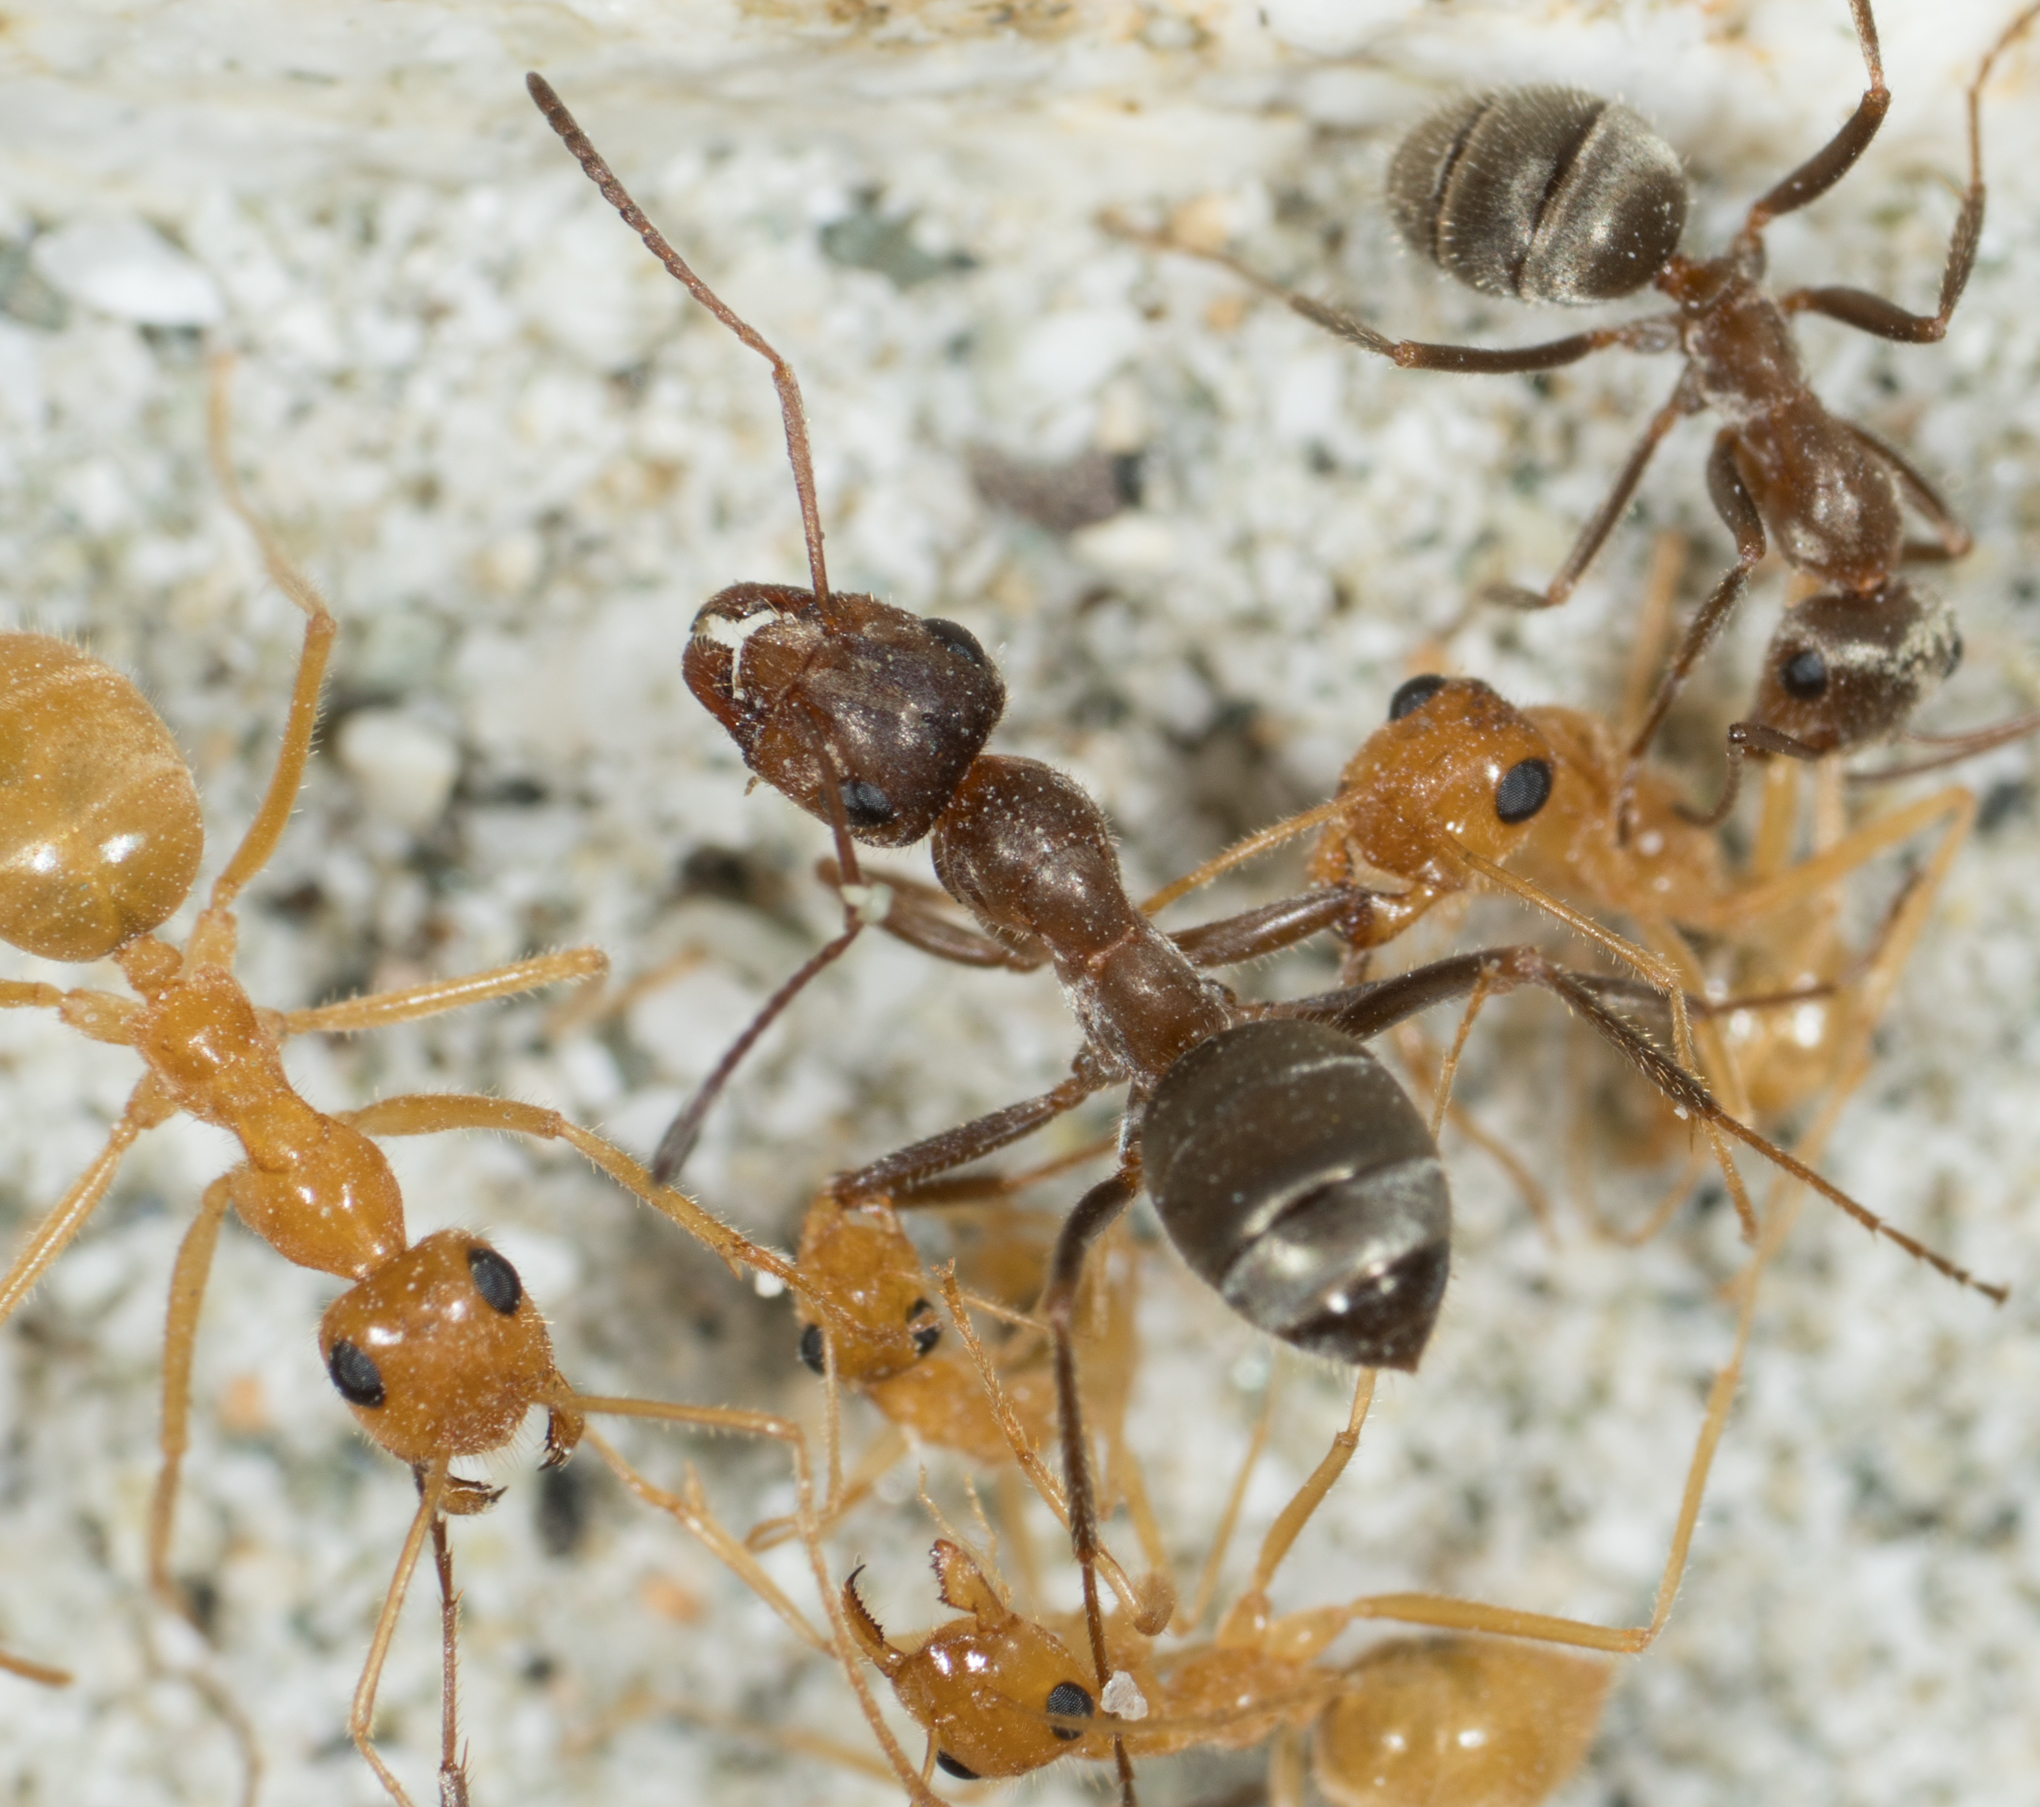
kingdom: Animalia
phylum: Arthropoda
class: Insecta
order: Hymenoptera
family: Formicidae
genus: Myrmecocystus
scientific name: Myrmecocystus mexicanus
